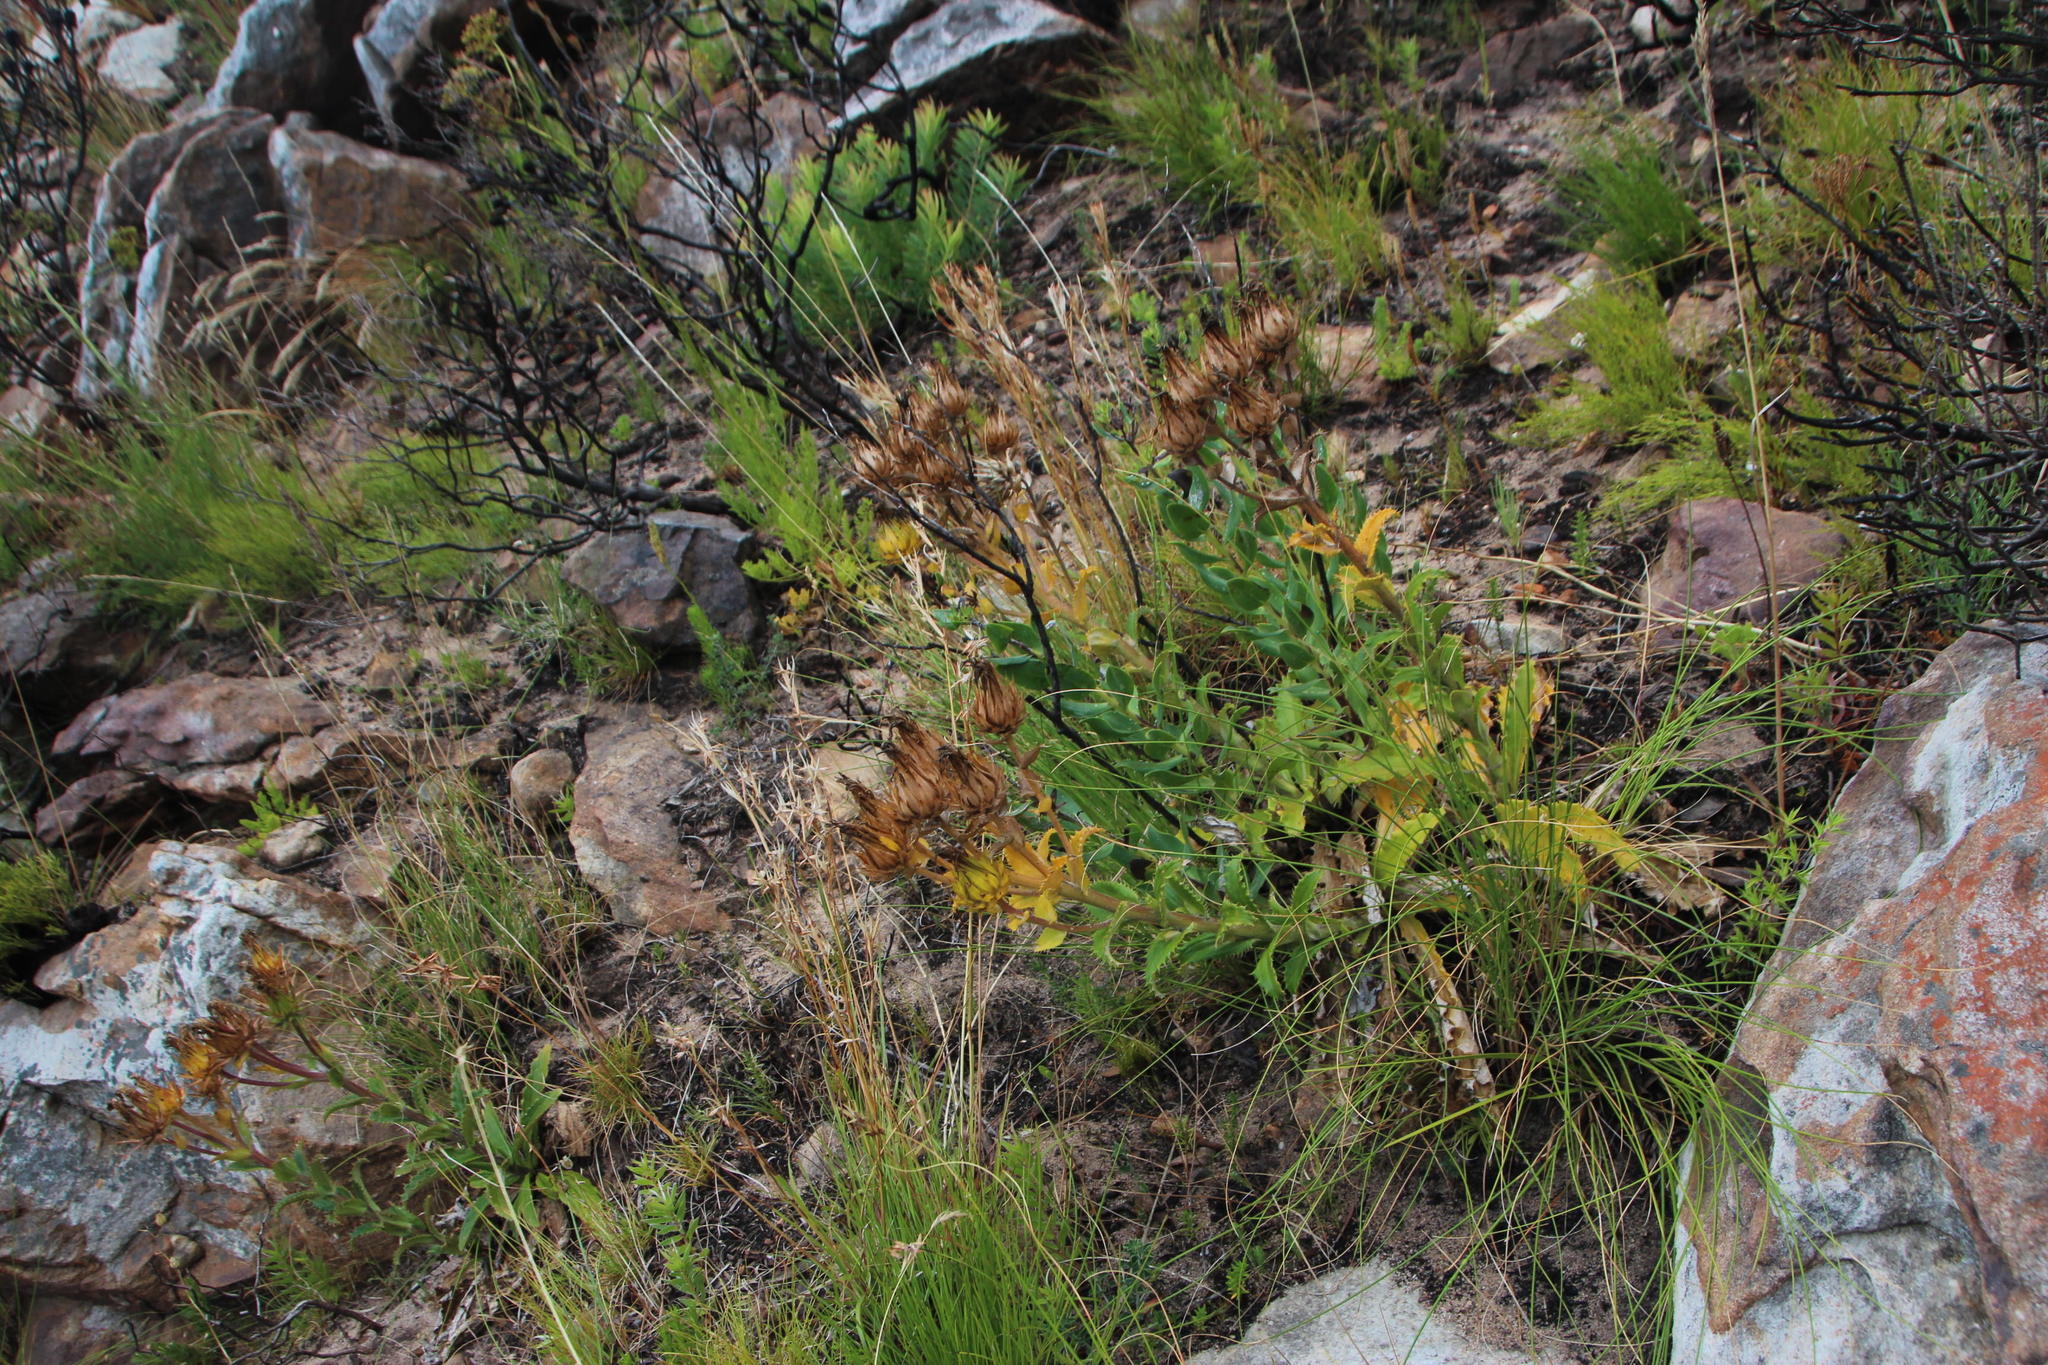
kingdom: Plantae
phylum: Tracheophyta
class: Magnoliopsida
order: Asterales
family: Asteraceae
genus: Berkheya
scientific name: Berkheya armata
